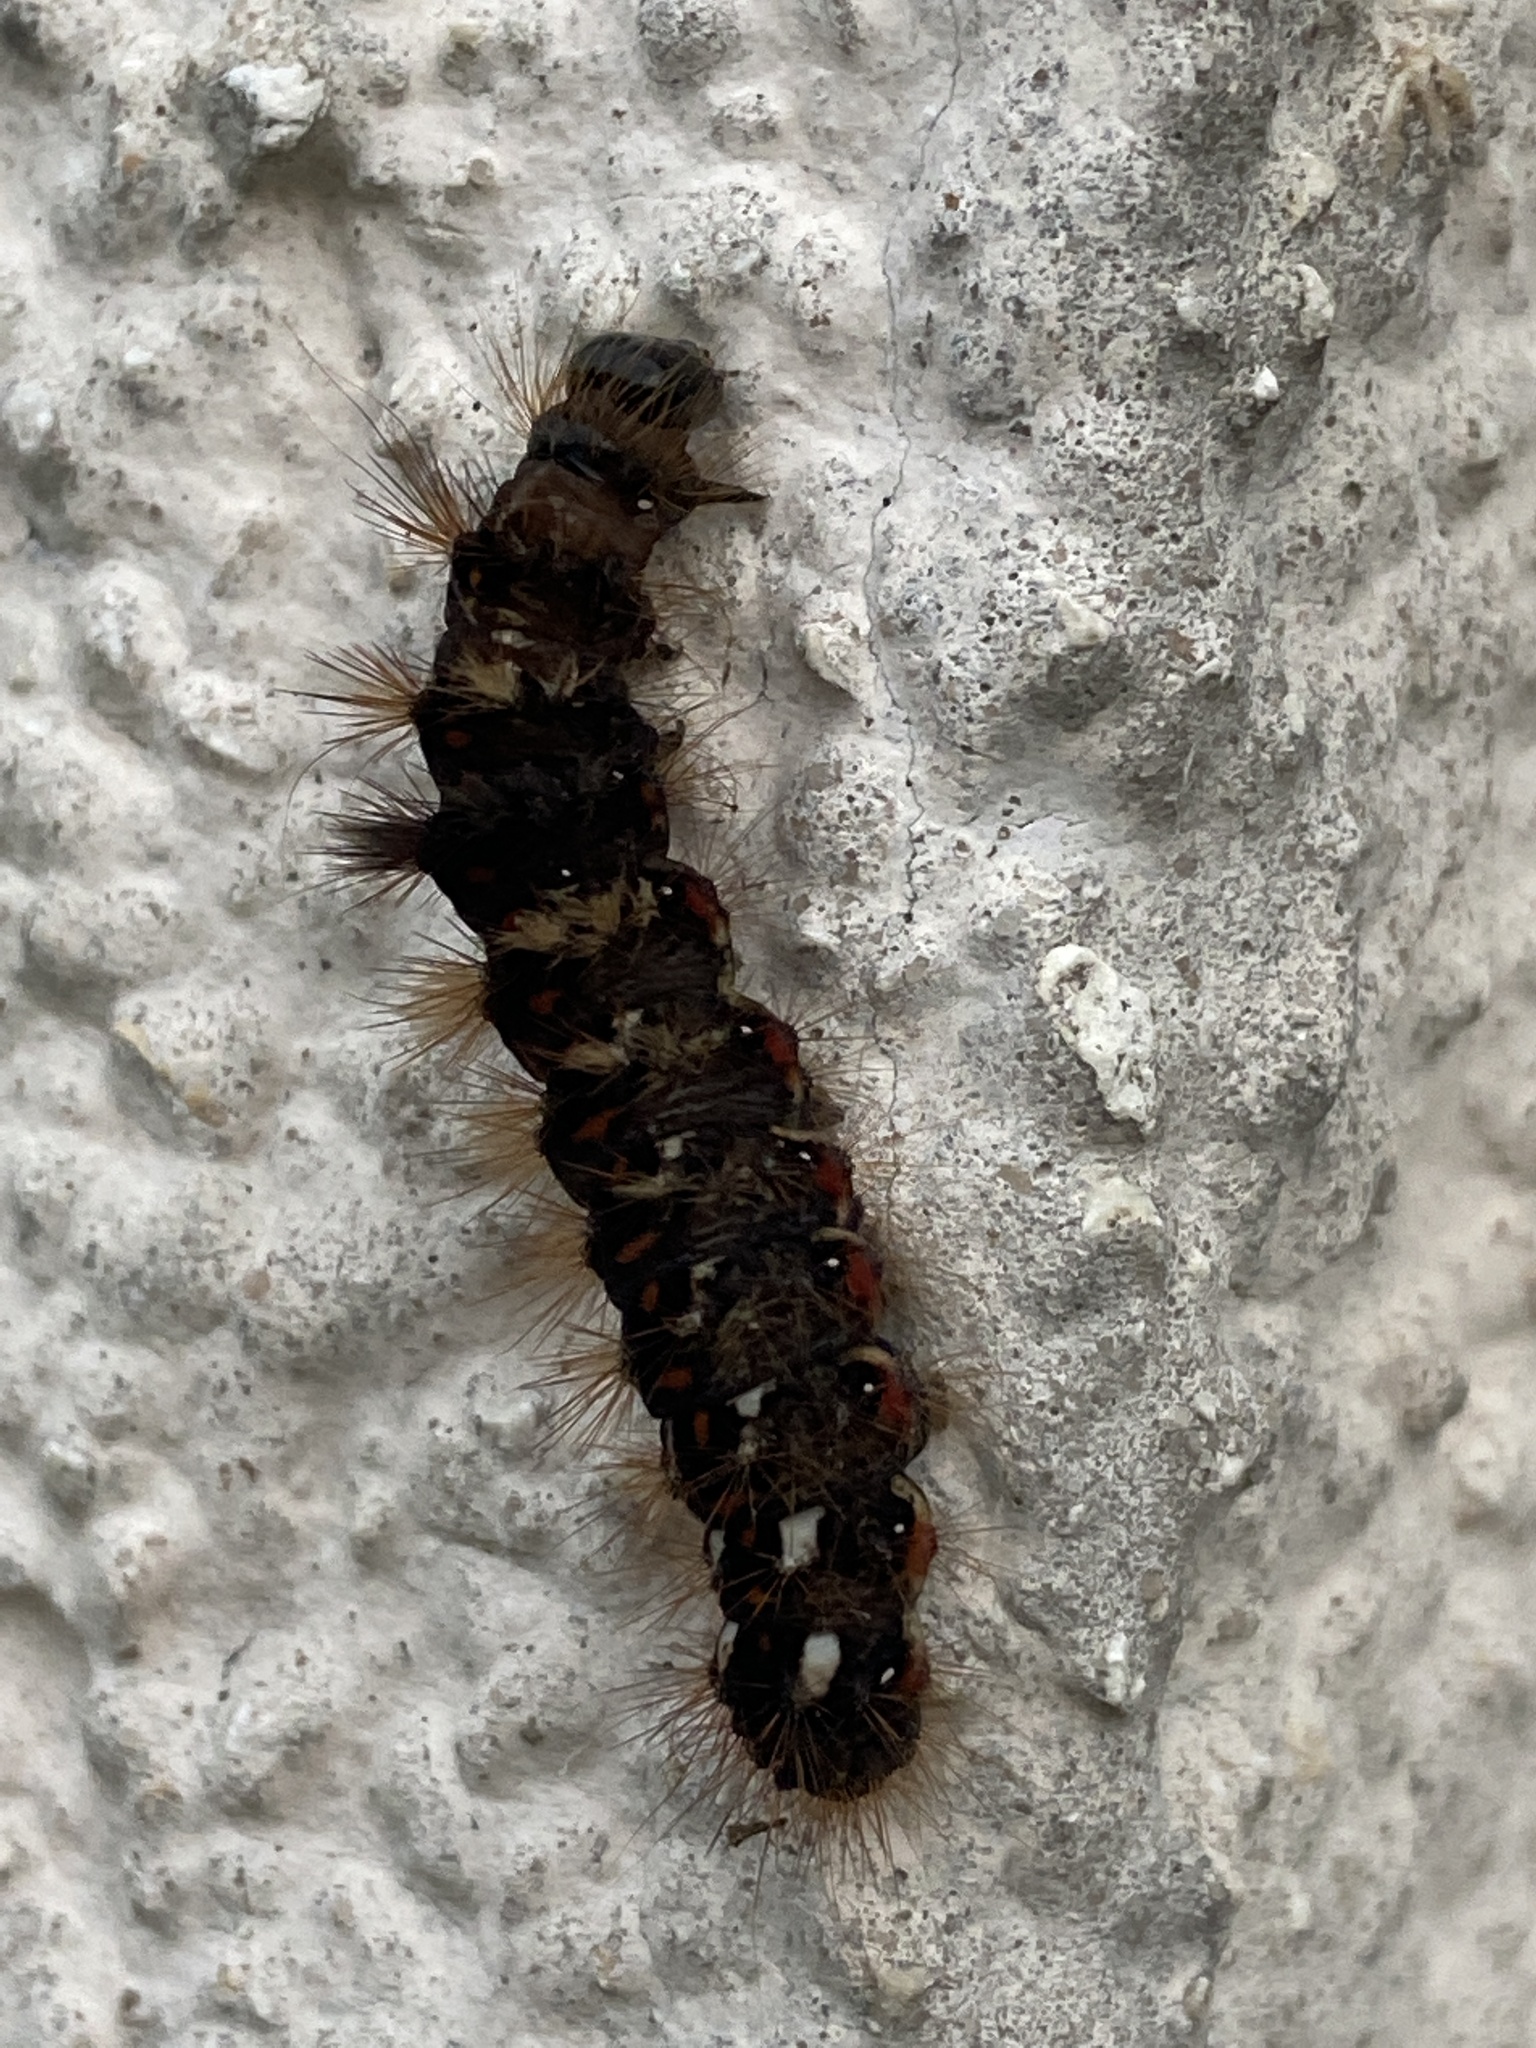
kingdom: Animalia
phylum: Arthropoda
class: Insecta
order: Lepidoptera
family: Noctuidae
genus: Acronicta
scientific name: Acronicta rumicis
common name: Knot grass
